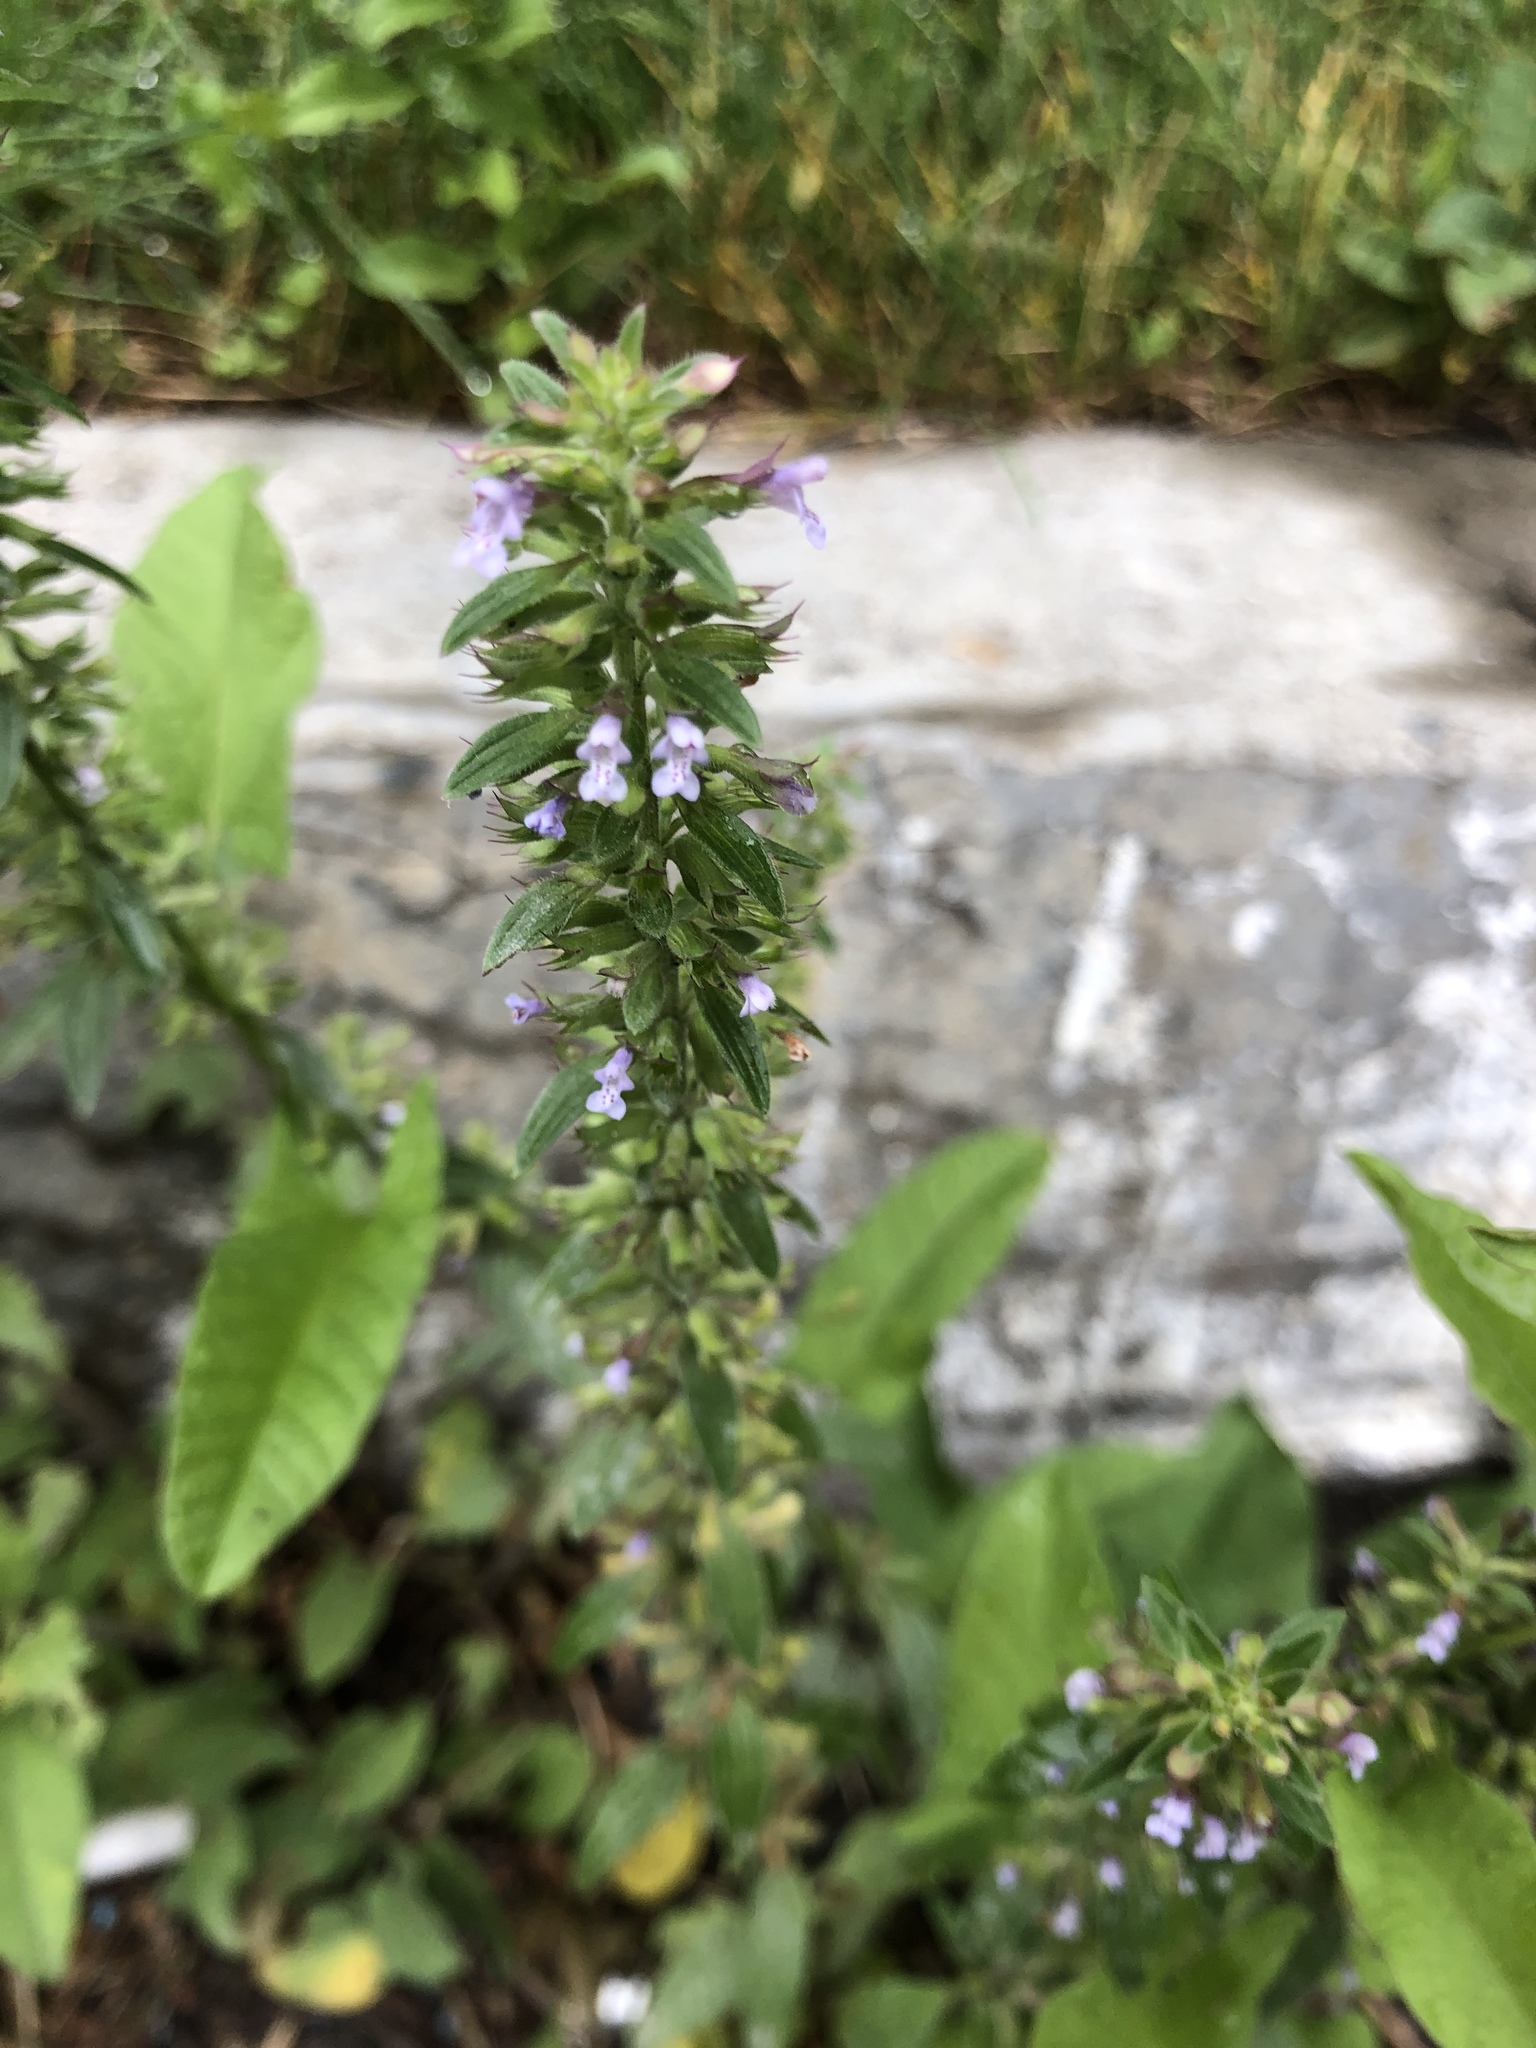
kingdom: Plantae
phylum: Tracheophyta
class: Magnoliopsida
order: Lamiales
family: Lamiaceae
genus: Dracocephalum
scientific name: Dracocephalum thymiflorum
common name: Thymeleaf dragonhead
